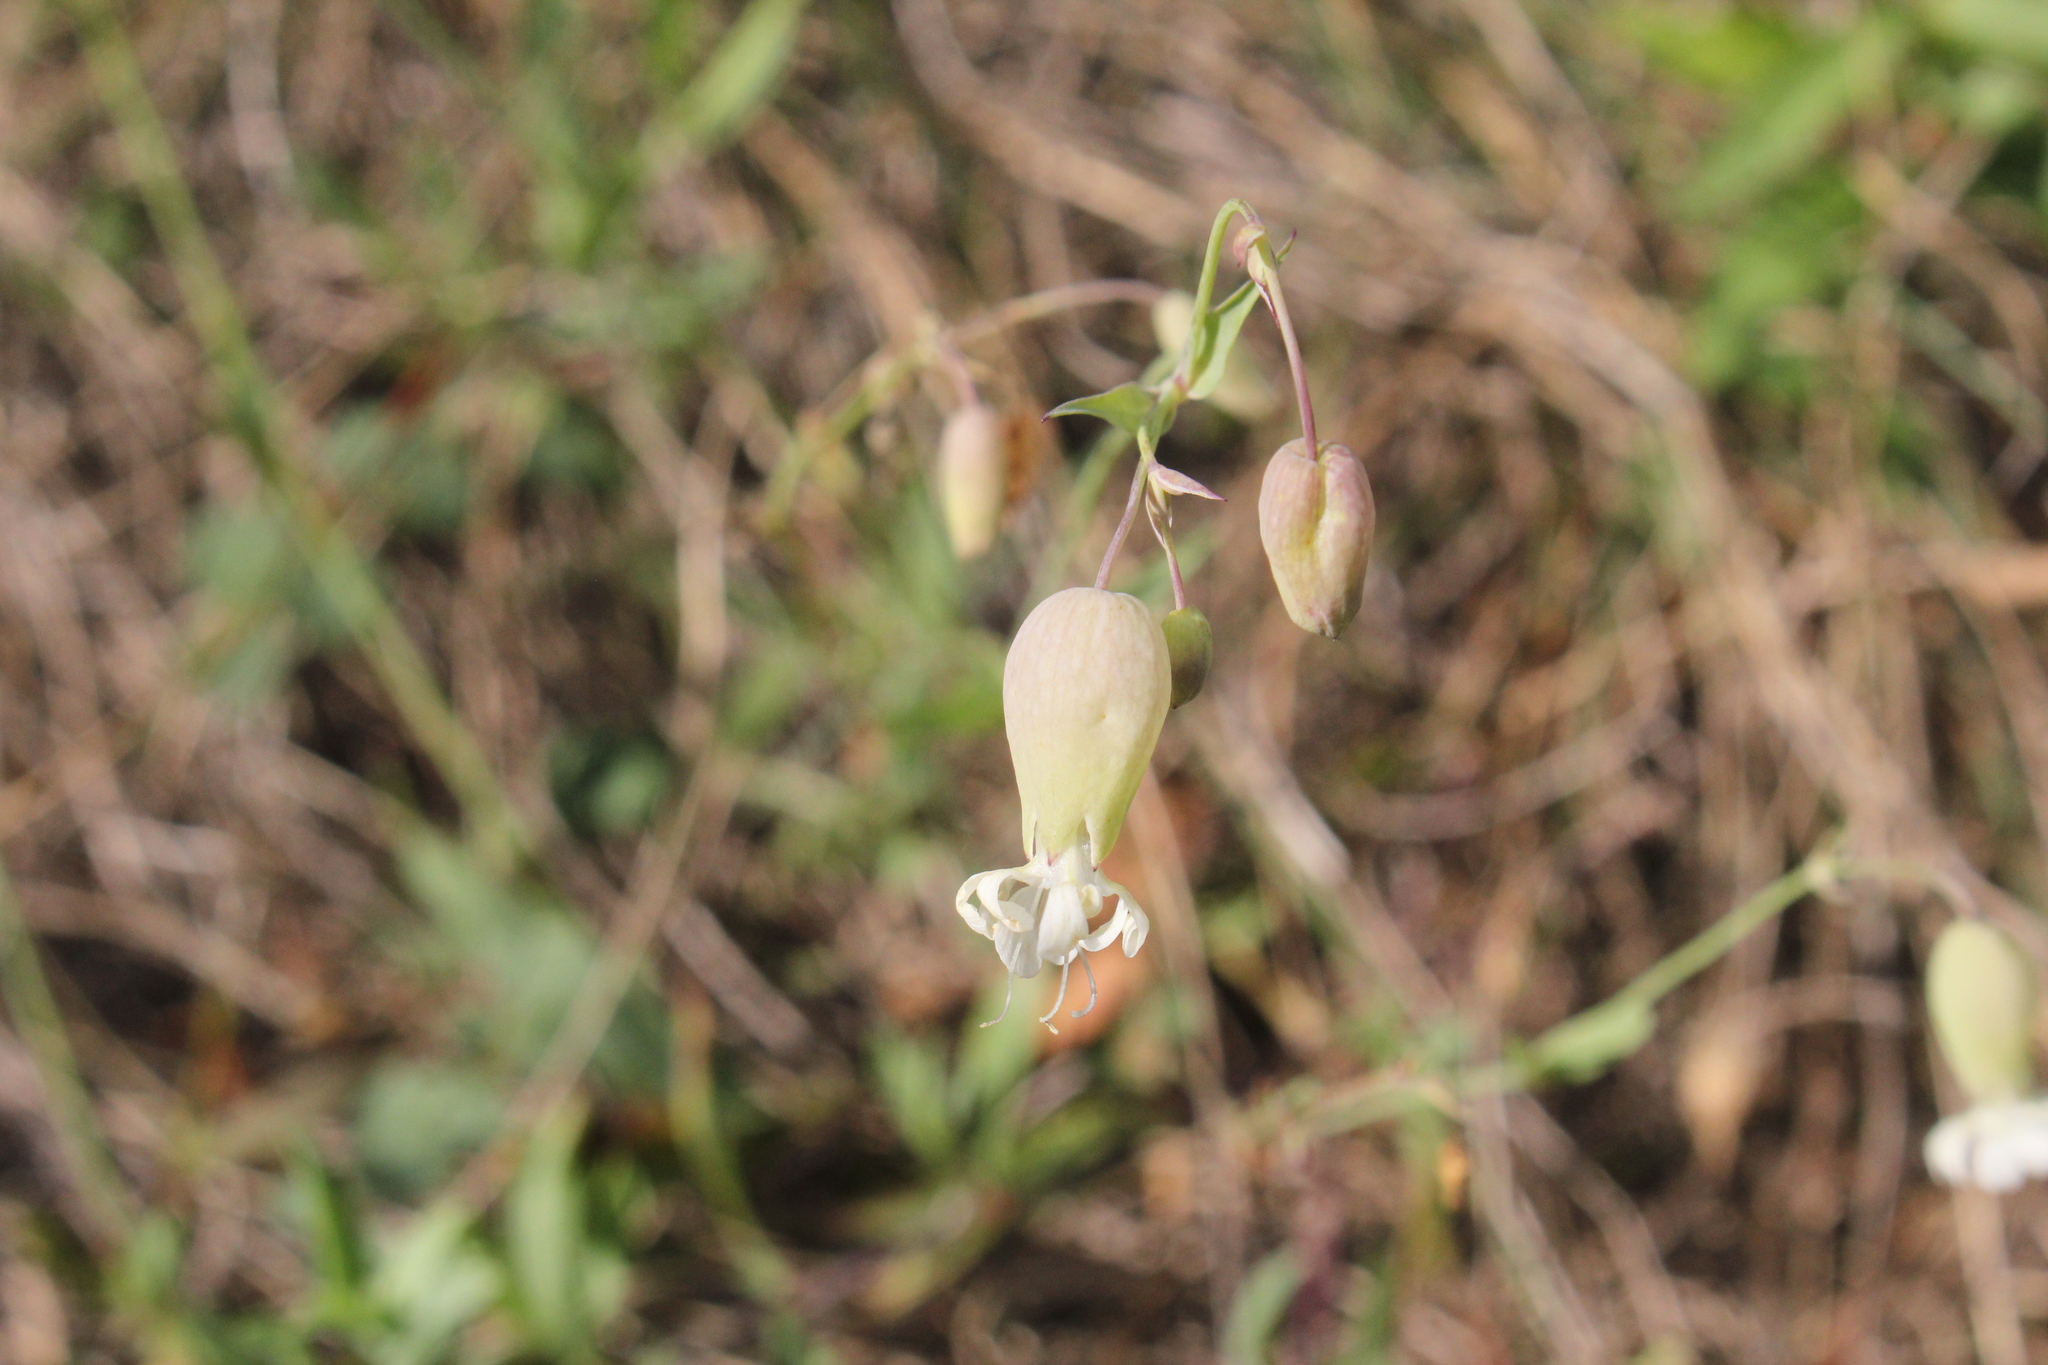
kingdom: Plantae
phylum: Tracheophyta
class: Magnoliopsida
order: Caryophyllales
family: Caryophyllaceae
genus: Silene
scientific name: Silene vulgaris
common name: Bladder campion
